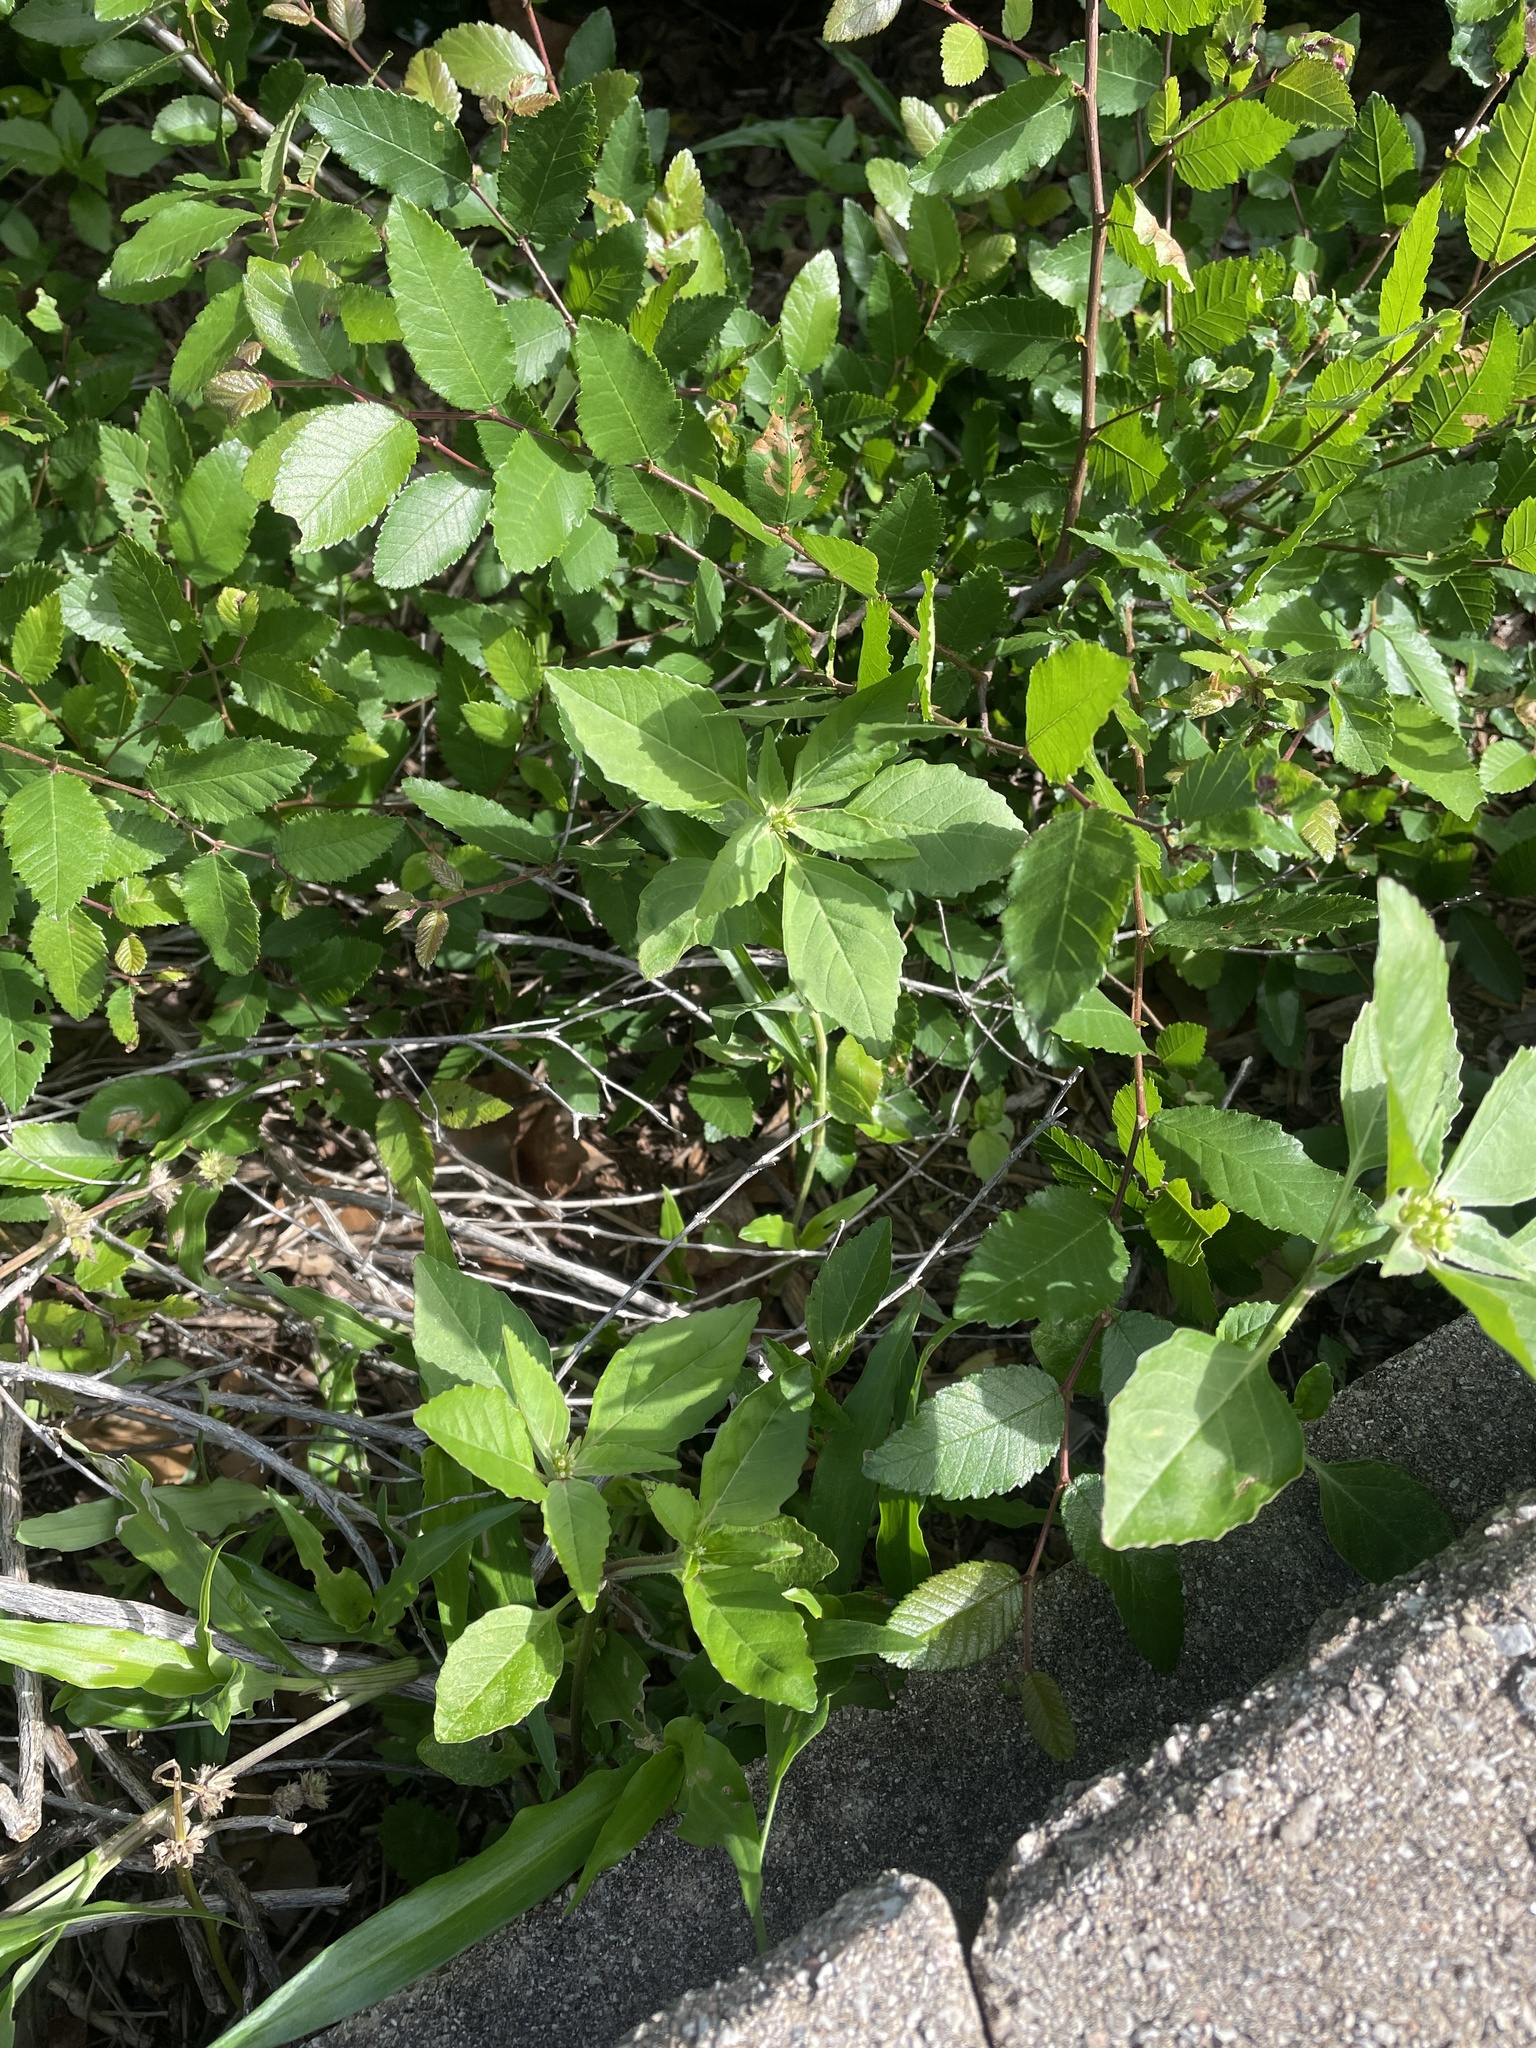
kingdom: Plantae
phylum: Tracheophyta
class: Magnoliopsida
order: Malpighiales
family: Euphorbiaceae
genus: Euphorbia
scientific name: Euphorbia dentata
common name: Dentate spurge
